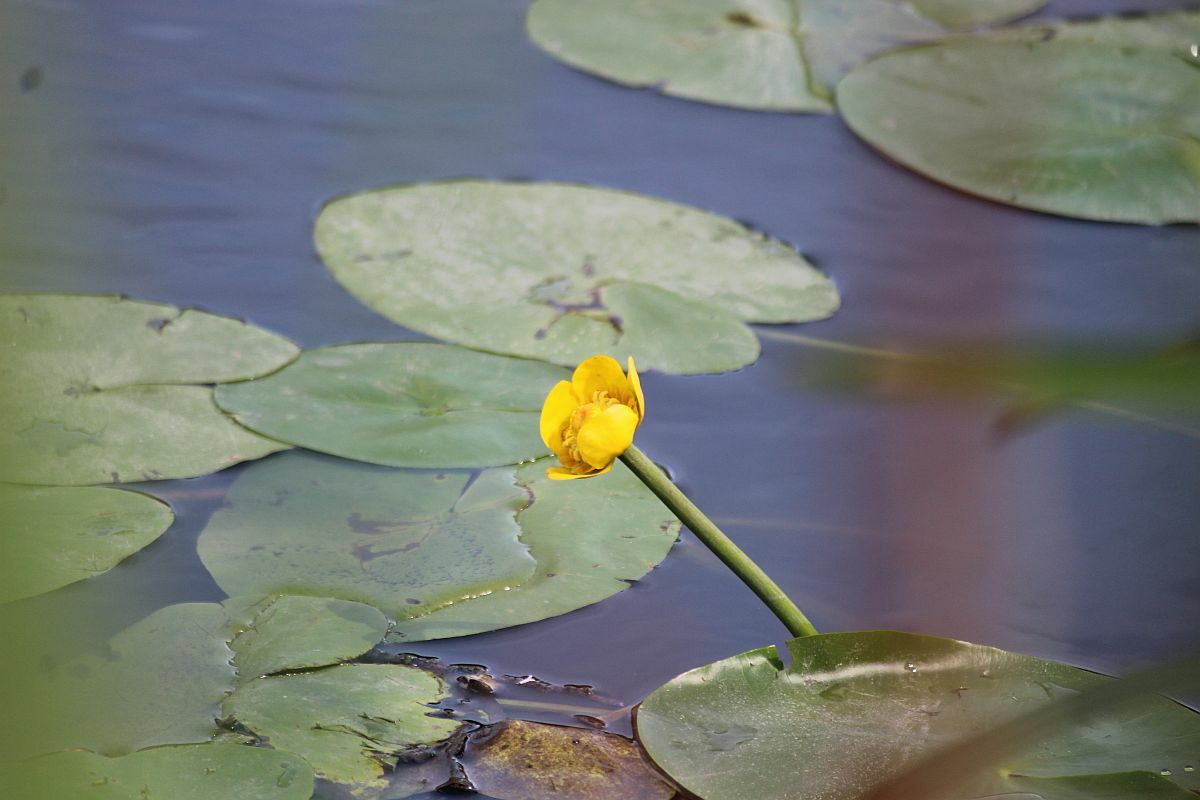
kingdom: Plantae
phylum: Tracheophyta
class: Magnoliopsida
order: Nymphaeales
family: Nymphaeaceae
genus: Nuphar
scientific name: Nuphar lutea
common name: Yellow water-lily
